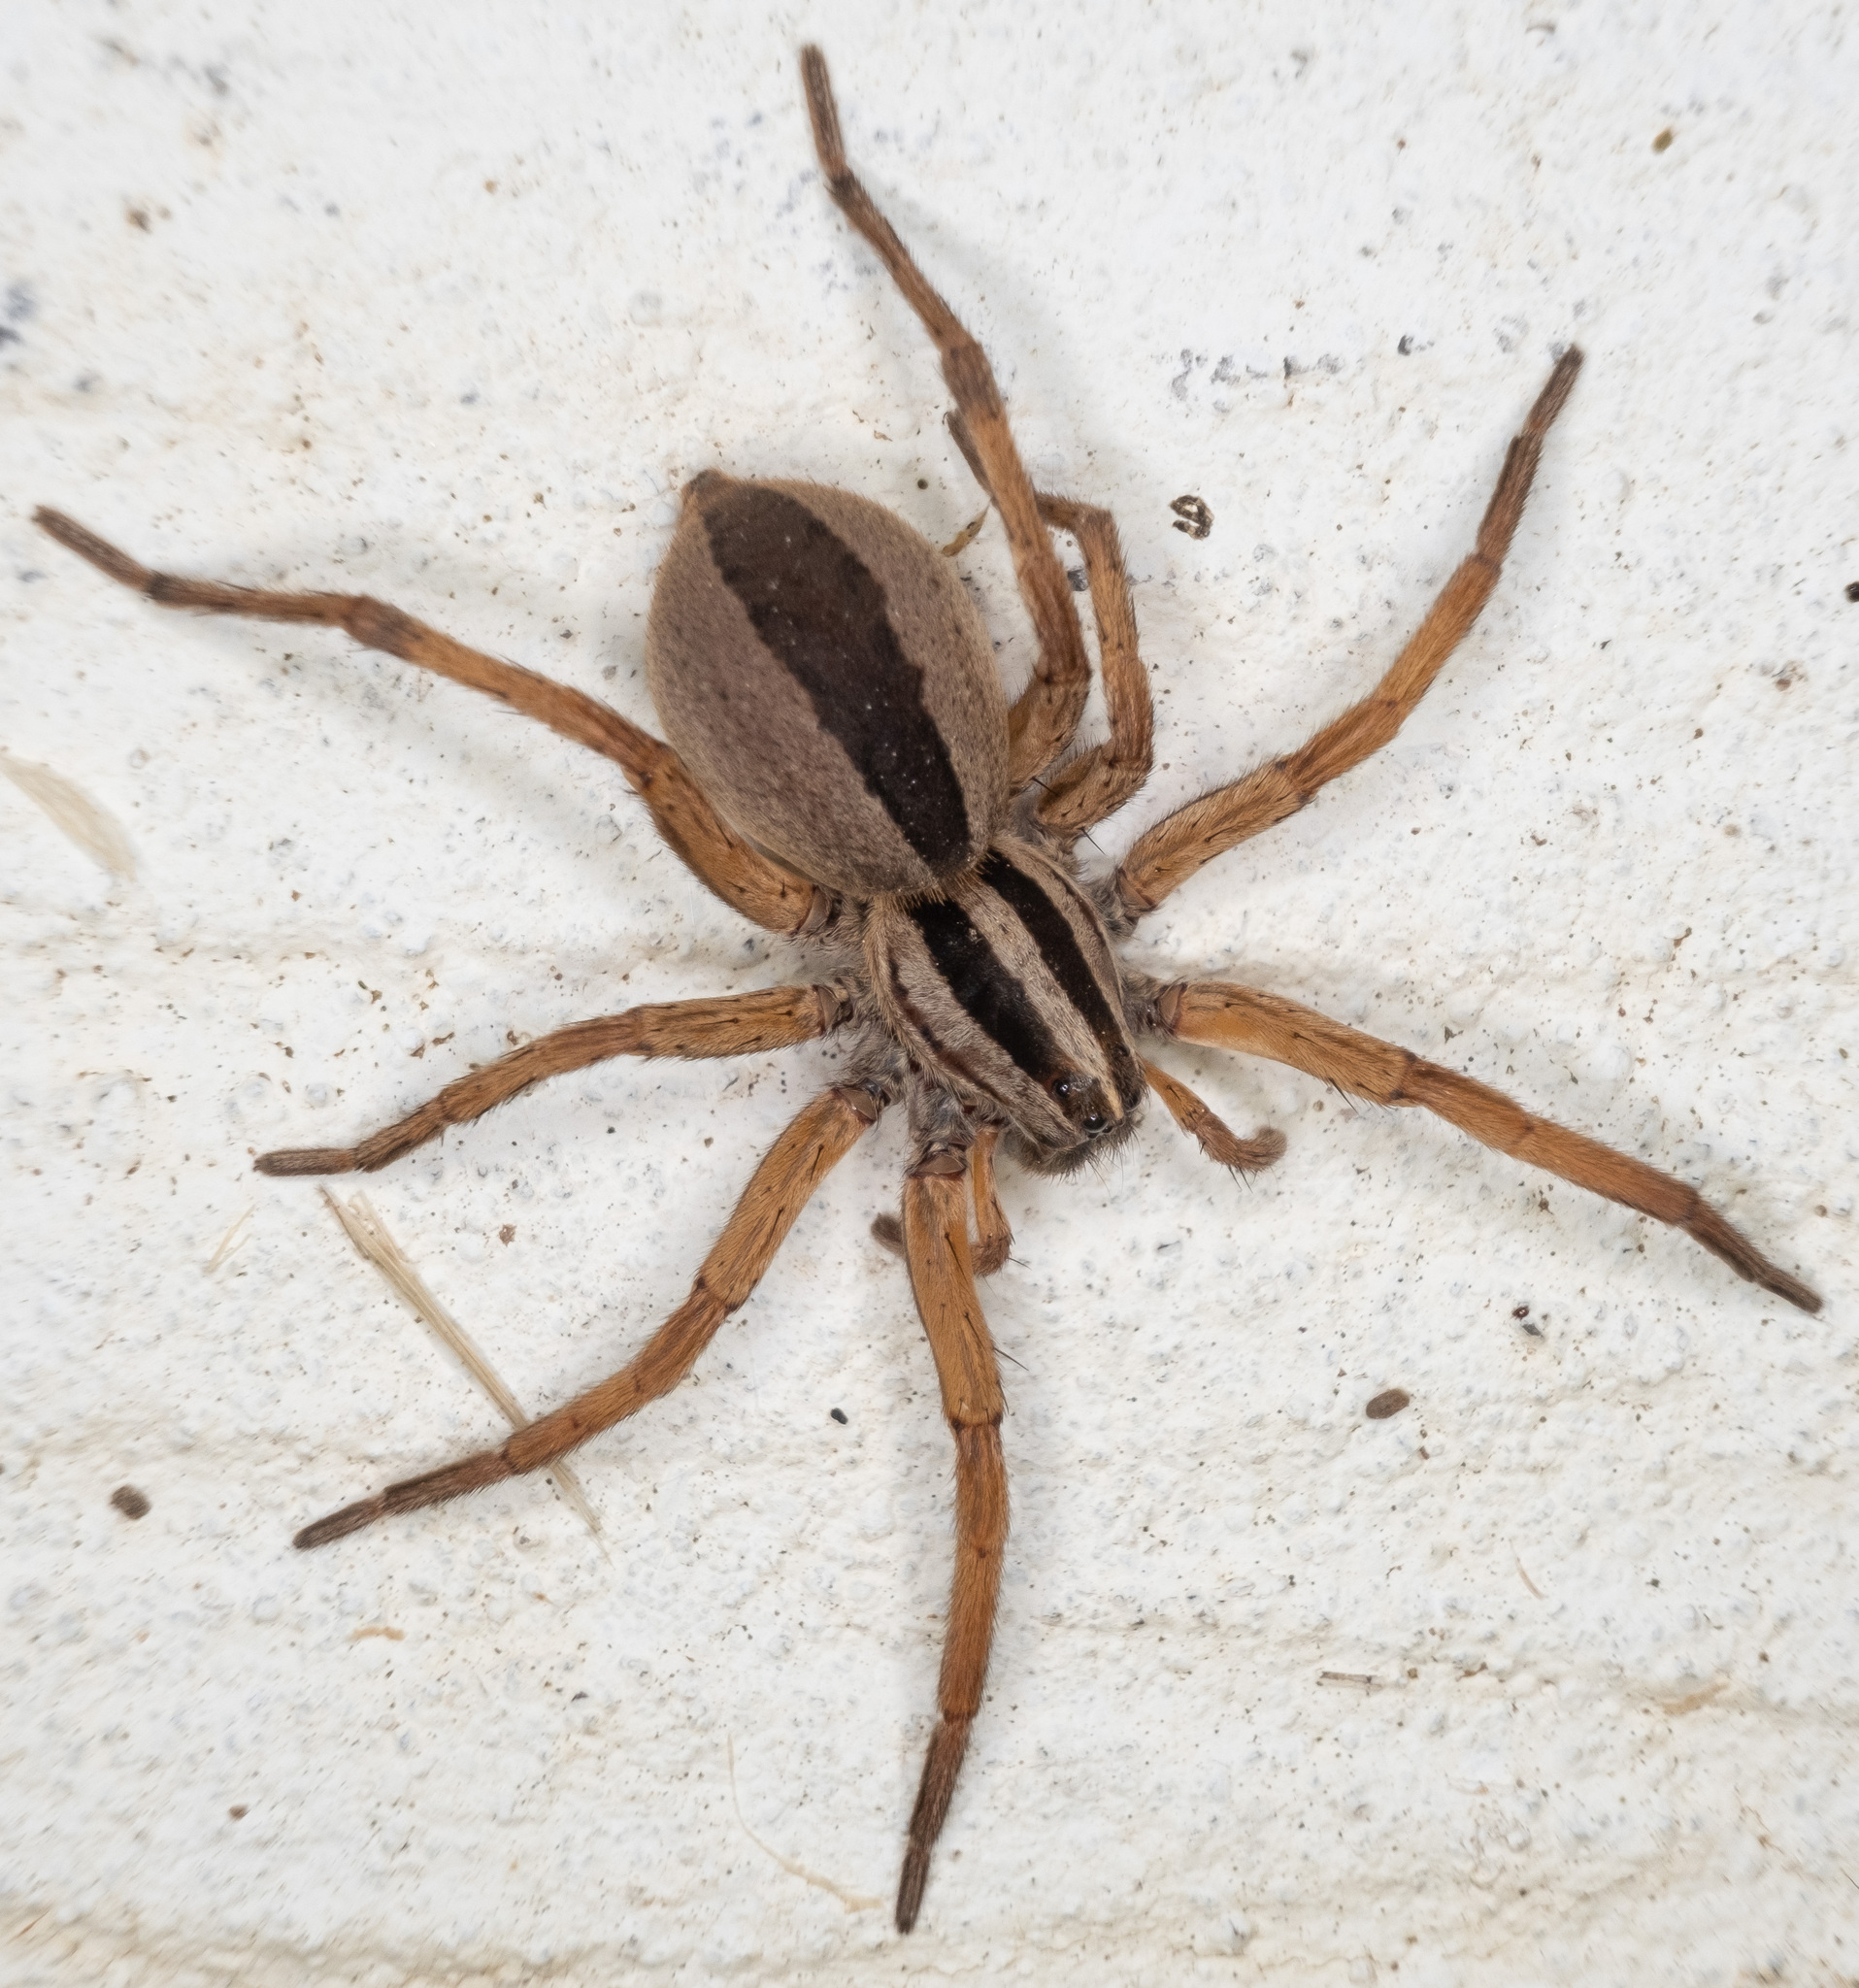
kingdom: Animalia
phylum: Arthropoda
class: Arachnida
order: Araneae
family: Lycosidae
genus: Rabidosa
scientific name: Rabidosa punctulata
